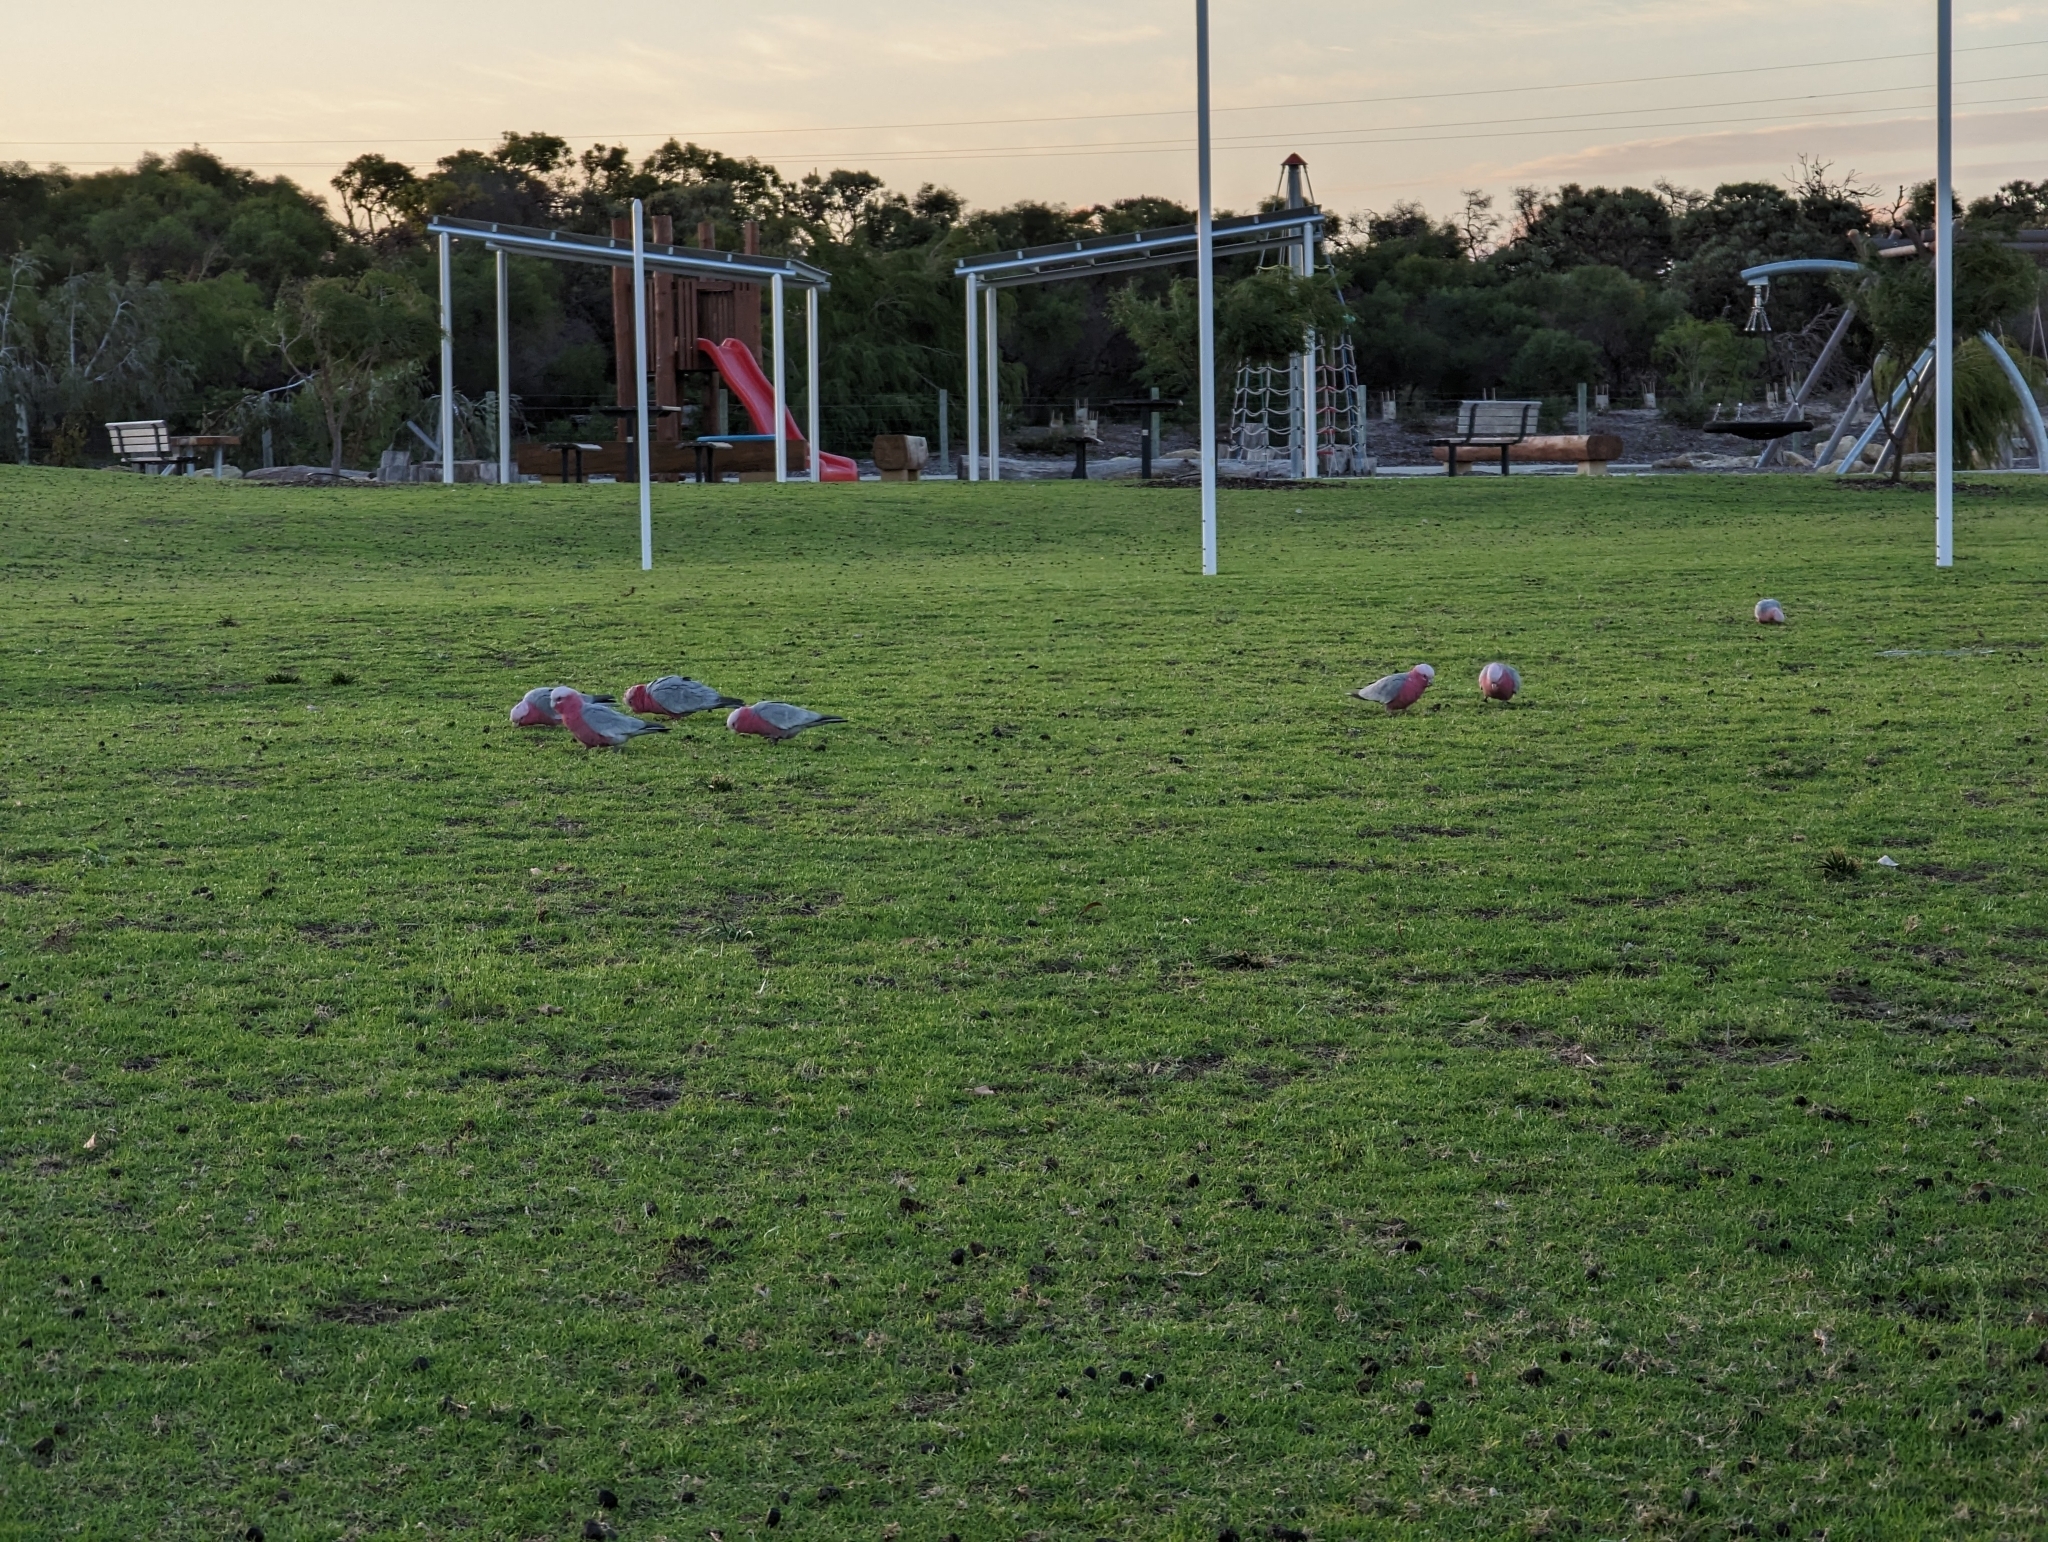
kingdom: Animalia
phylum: Chordata
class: Aves
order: Psittaciformes
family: Psittacidae
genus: Eolophus
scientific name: Eolophus roseicapilla
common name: Galah
